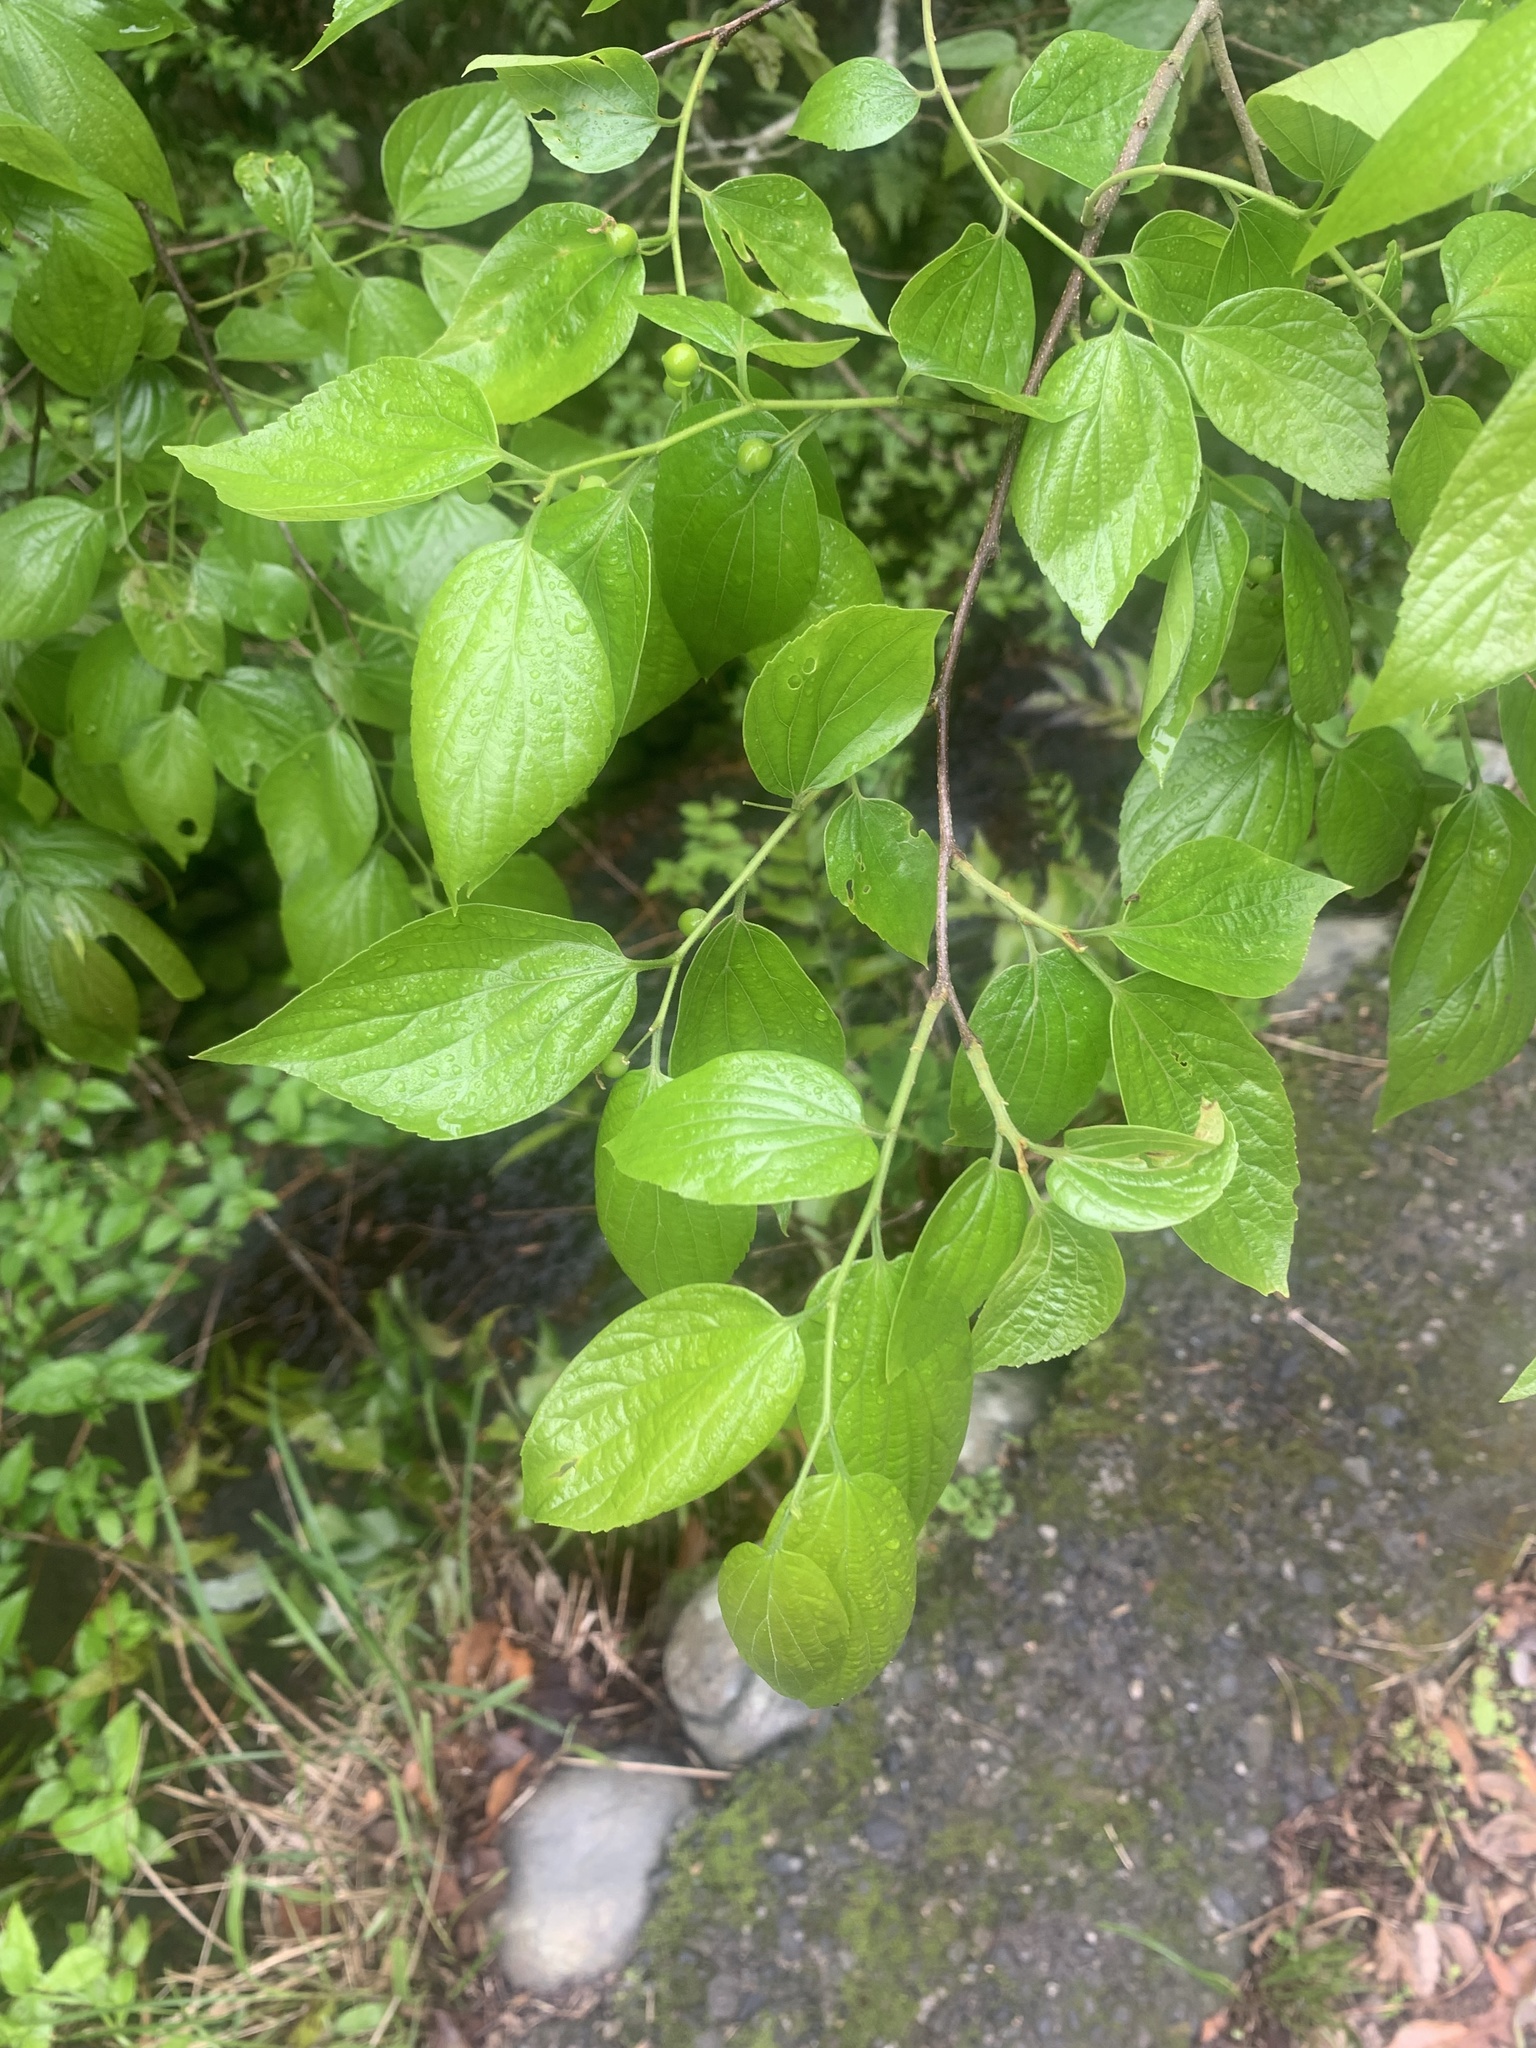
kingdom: Plantae
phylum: Tracheophyta
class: Magnoliopsida
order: Rosales
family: Cannabaceae
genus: Celtis
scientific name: Celtis sinensis
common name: Chinese hackberry
